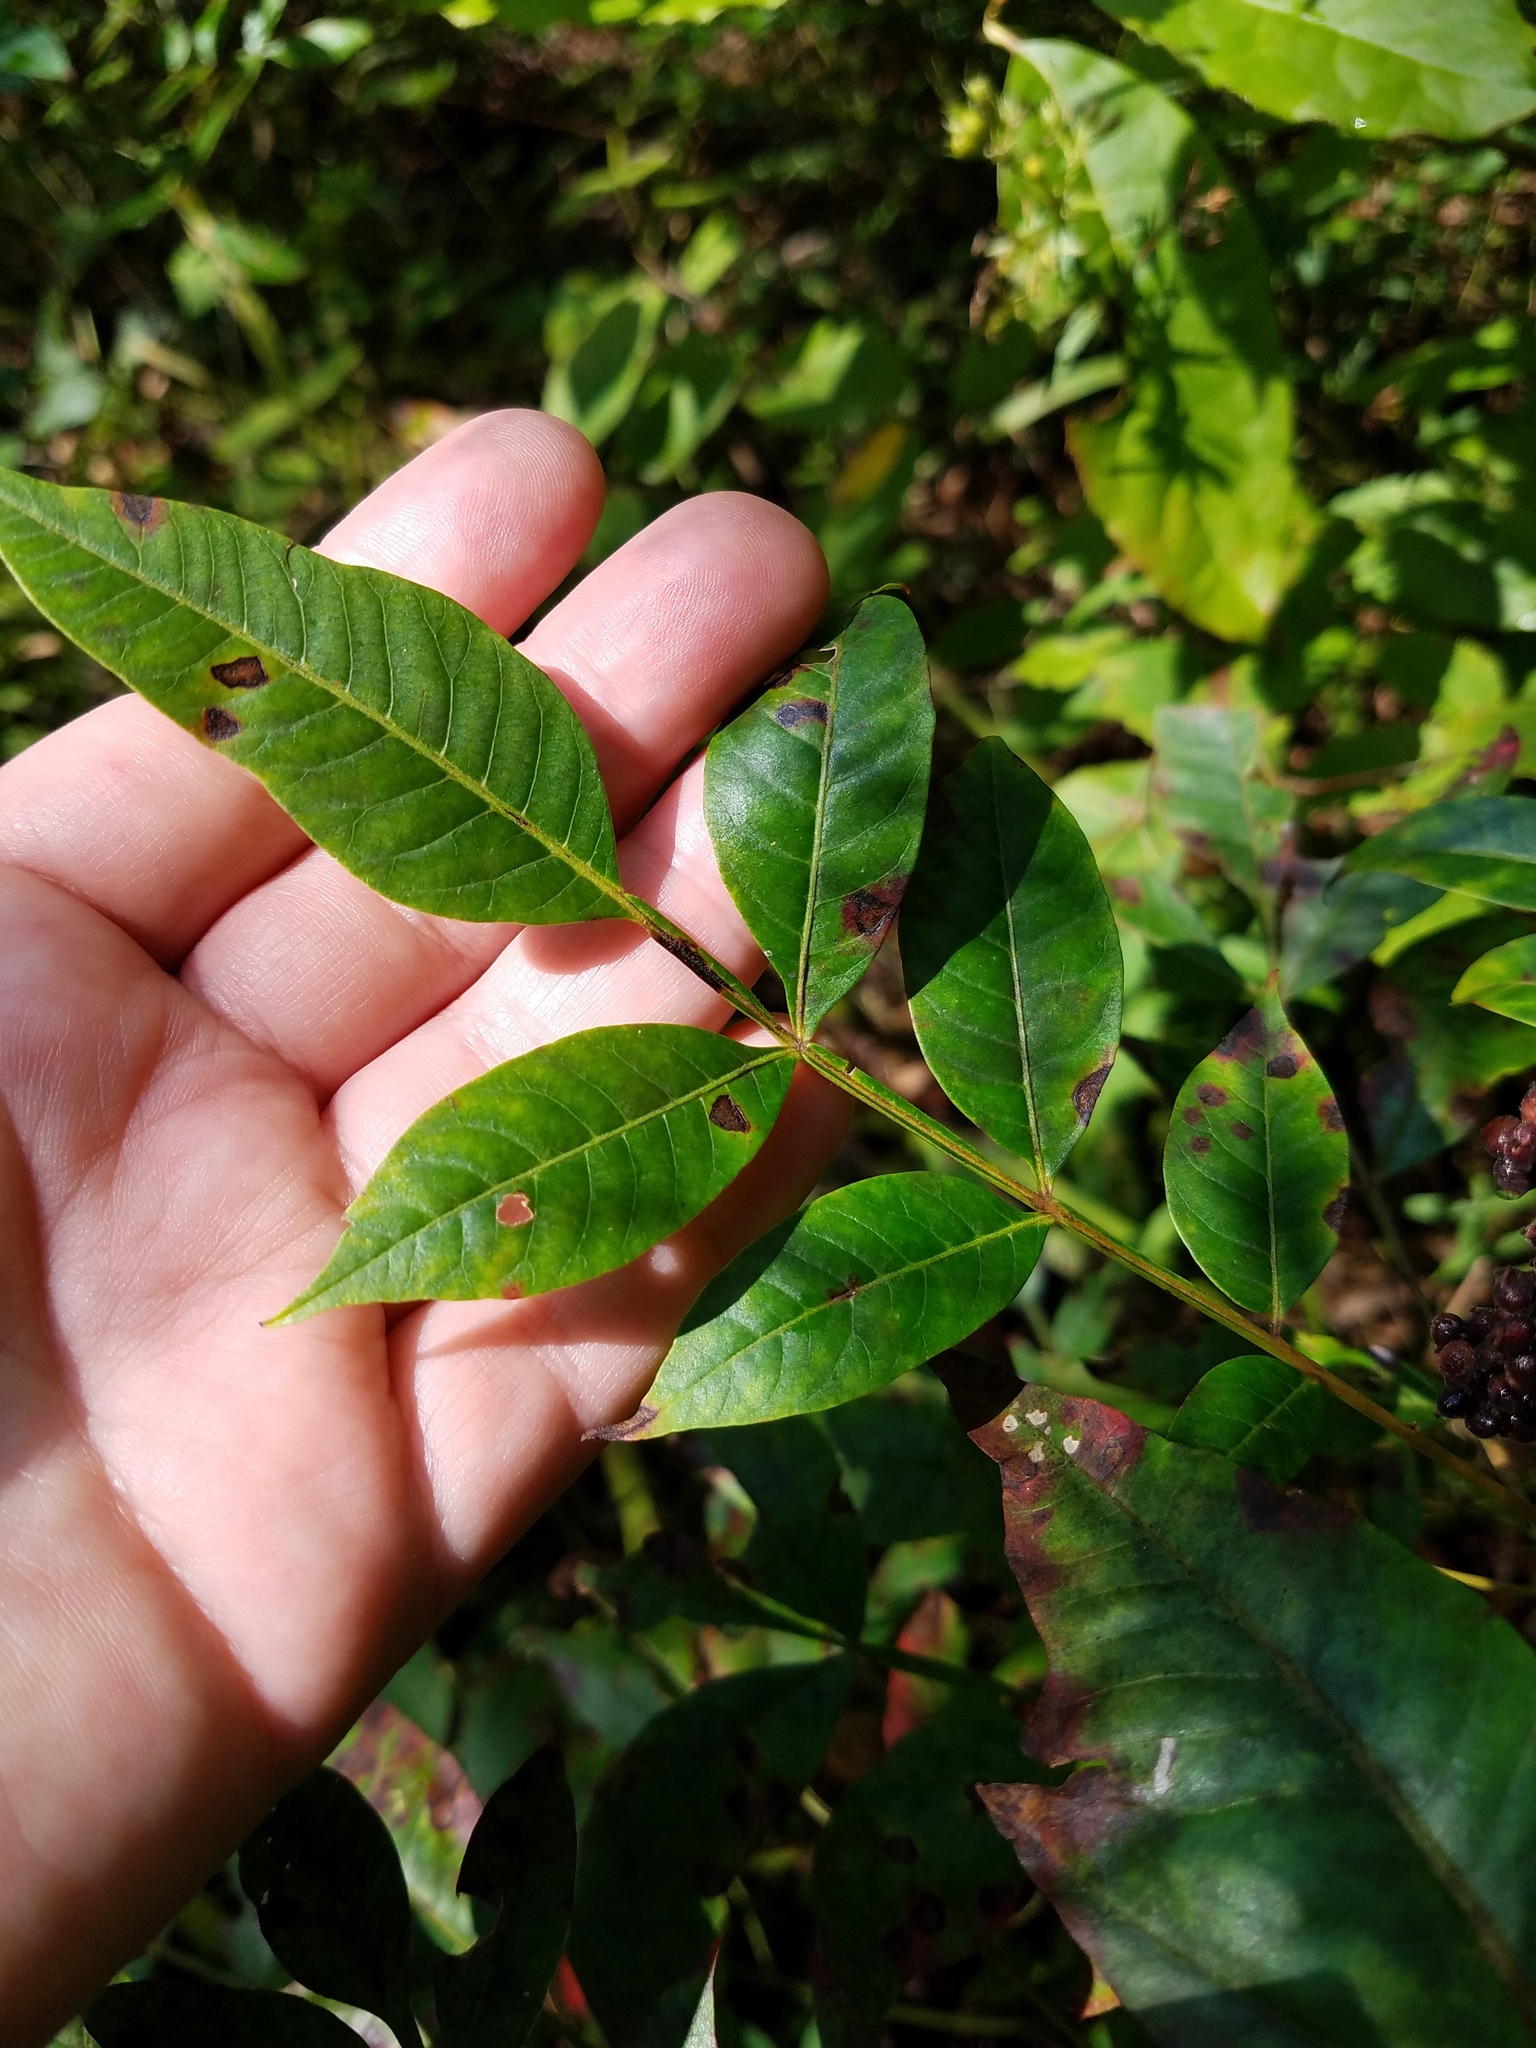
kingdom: Plantae
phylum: Tracheophyta
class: Magnoliopsida
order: Sapindales
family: Anacardiaceae
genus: Rhus
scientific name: Rhus copallina
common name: Shining sumac
